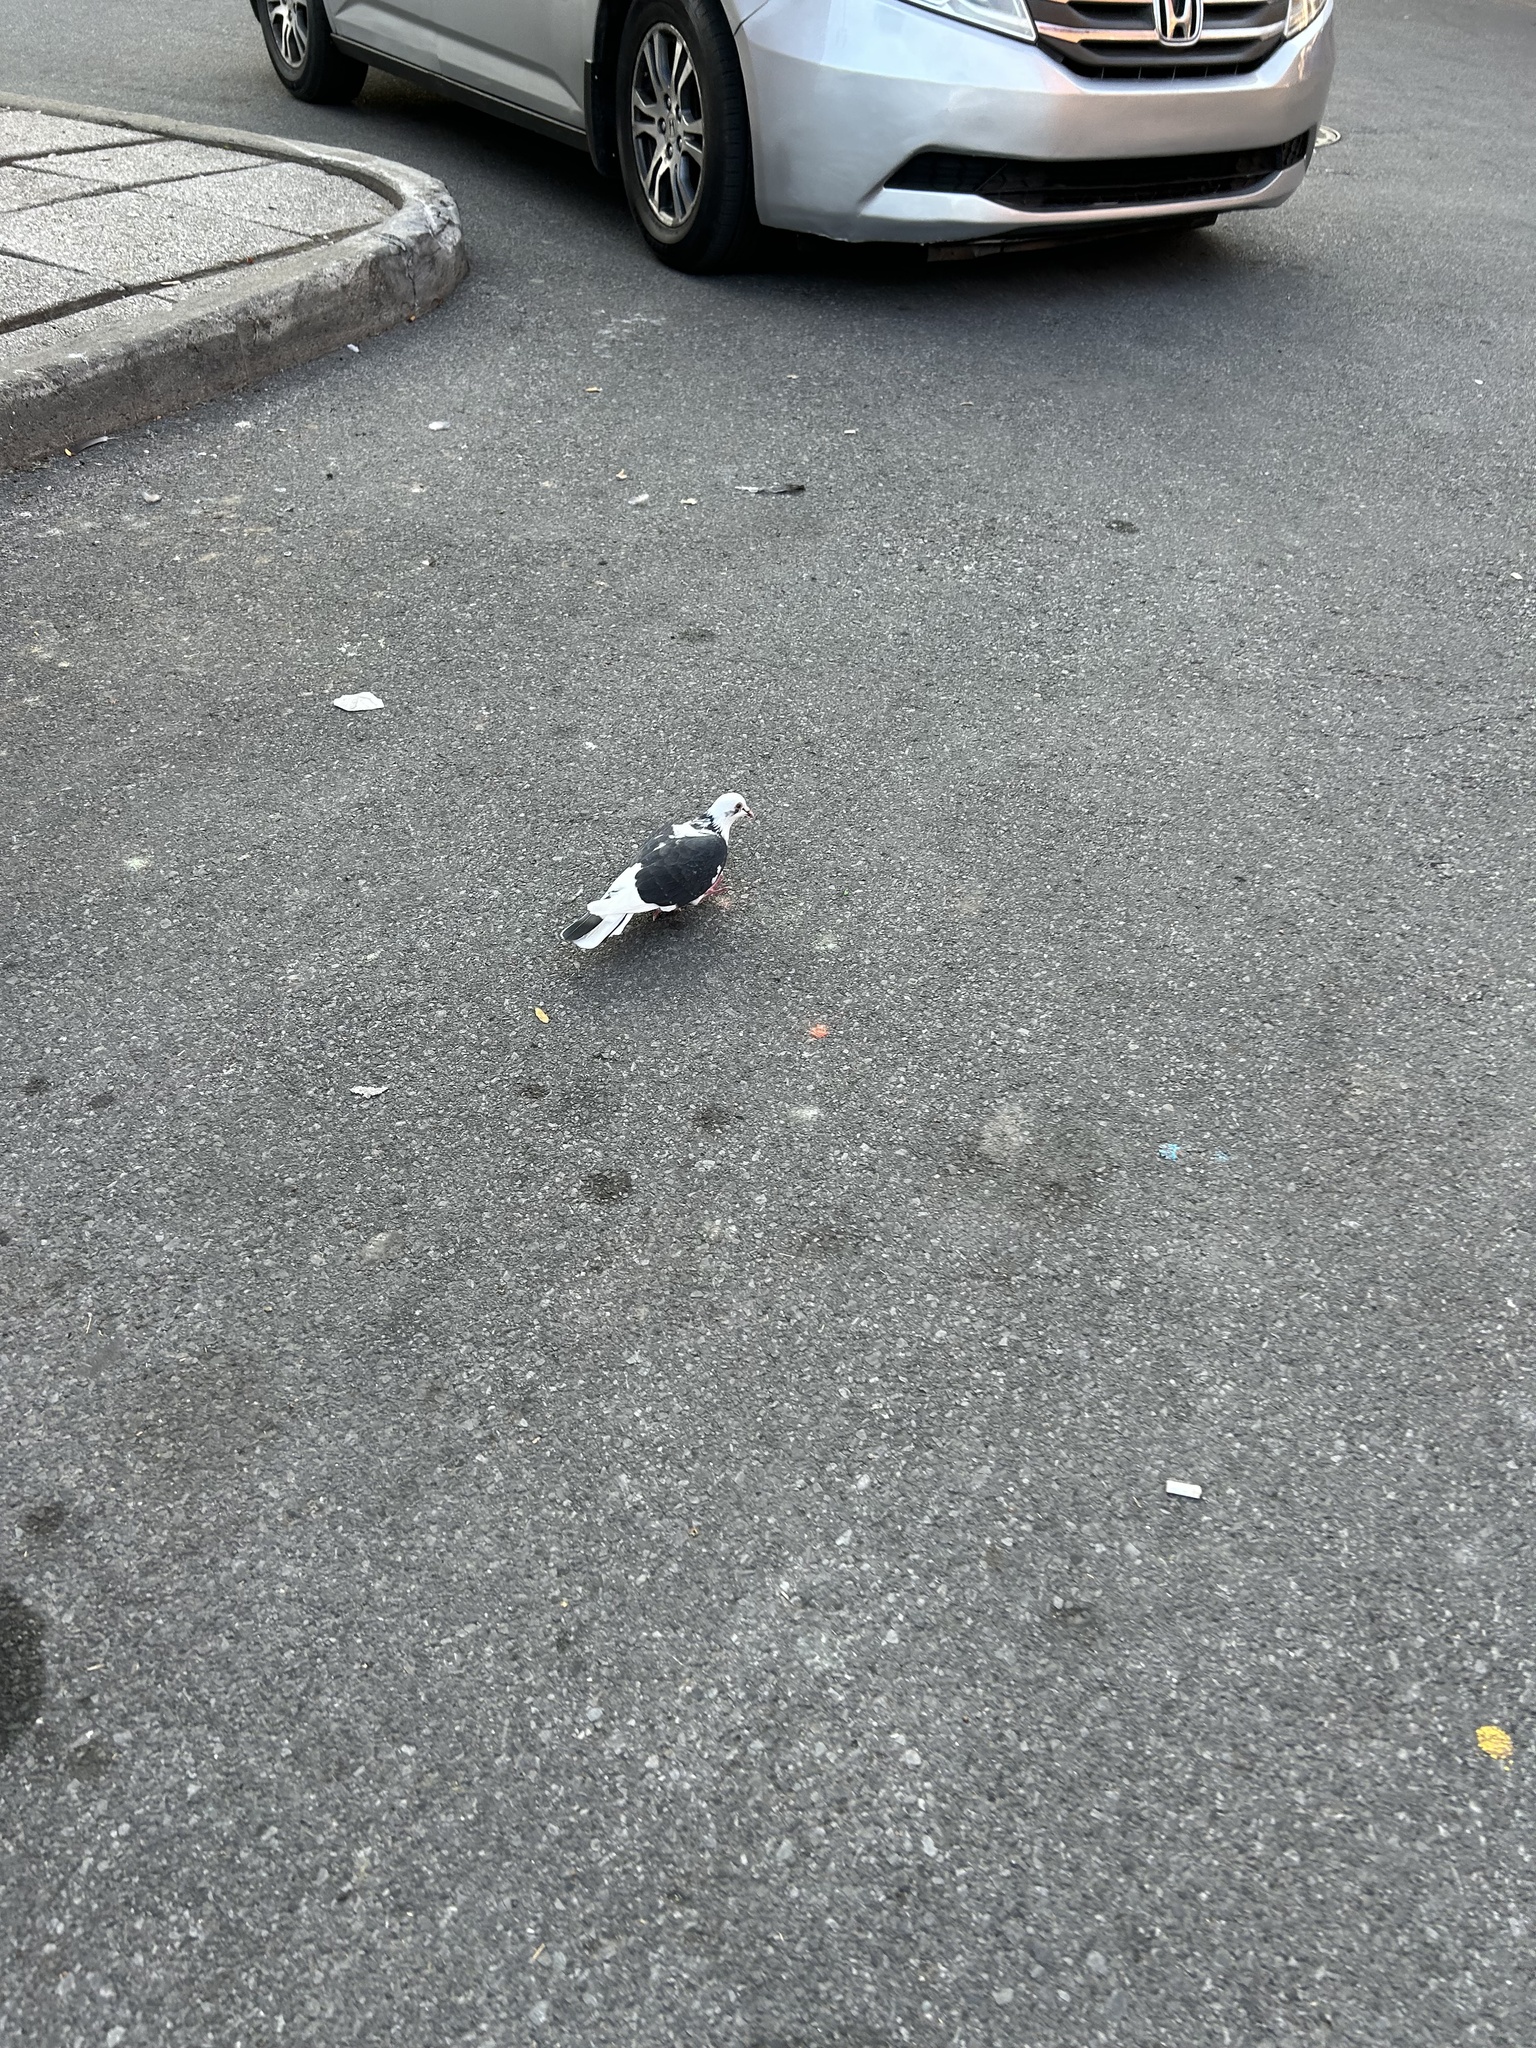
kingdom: Animalia
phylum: Chordata
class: Aves
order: Columbiformes
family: Columbidae
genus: Columba
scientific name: Columba livia
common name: Rock pigeon
